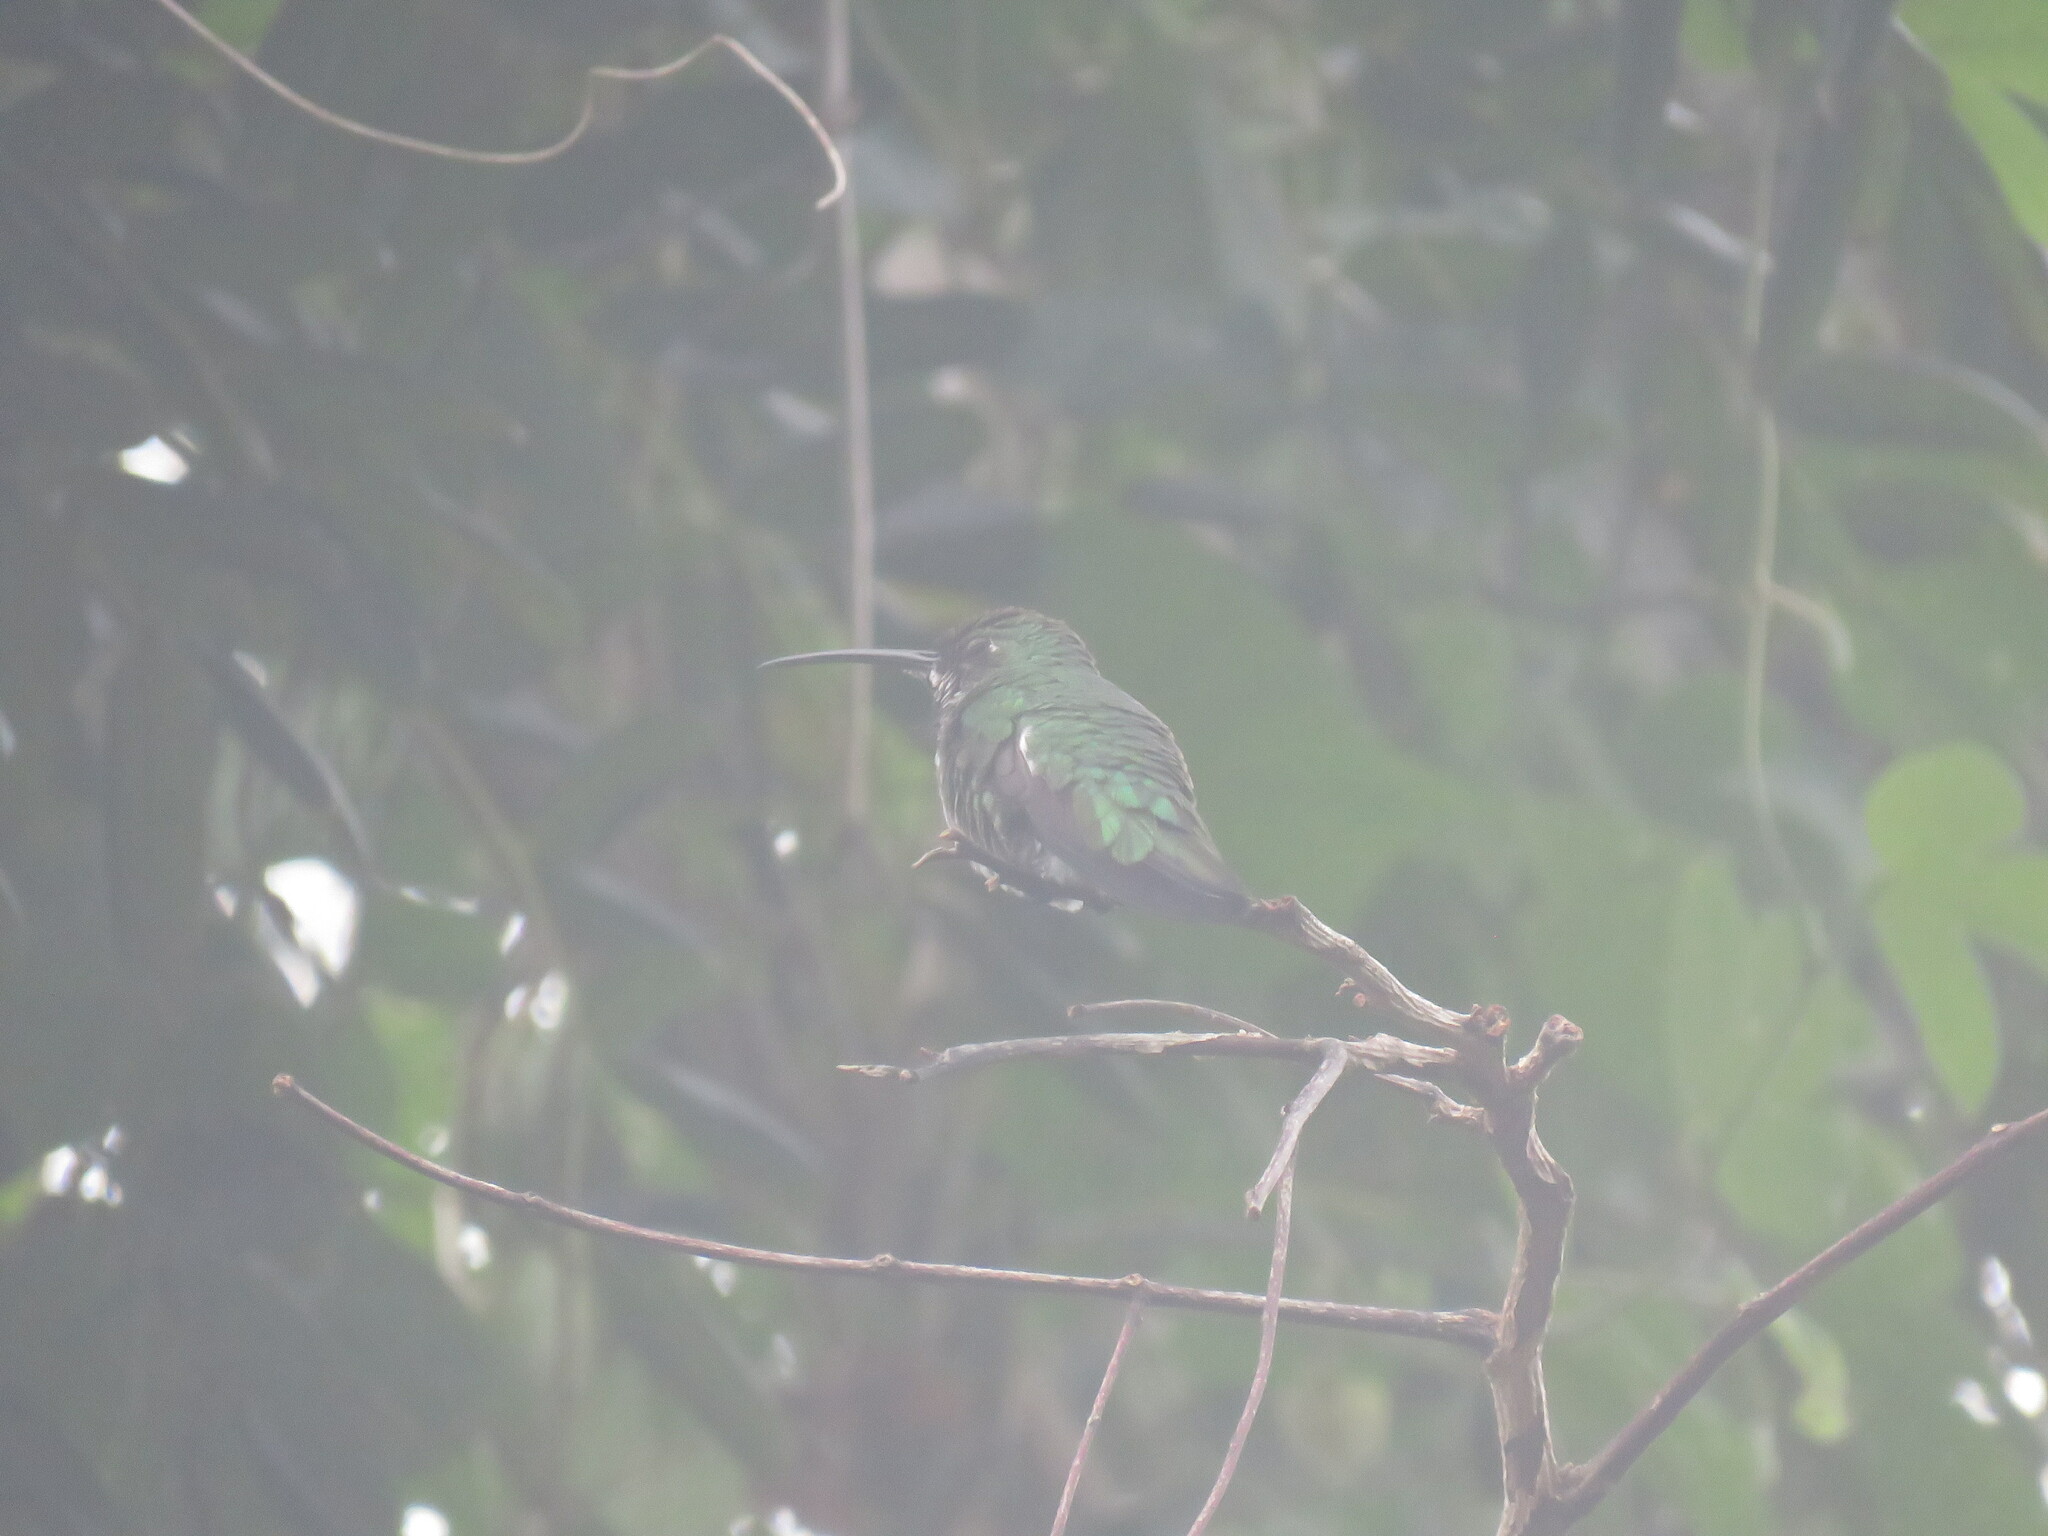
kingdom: Animalia
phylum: Chordata
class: Aves
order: Apodiformes
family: Trochilidae
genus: Anthracothorax
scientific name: Anthracothorax prevostii
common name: Green-breasted mango
